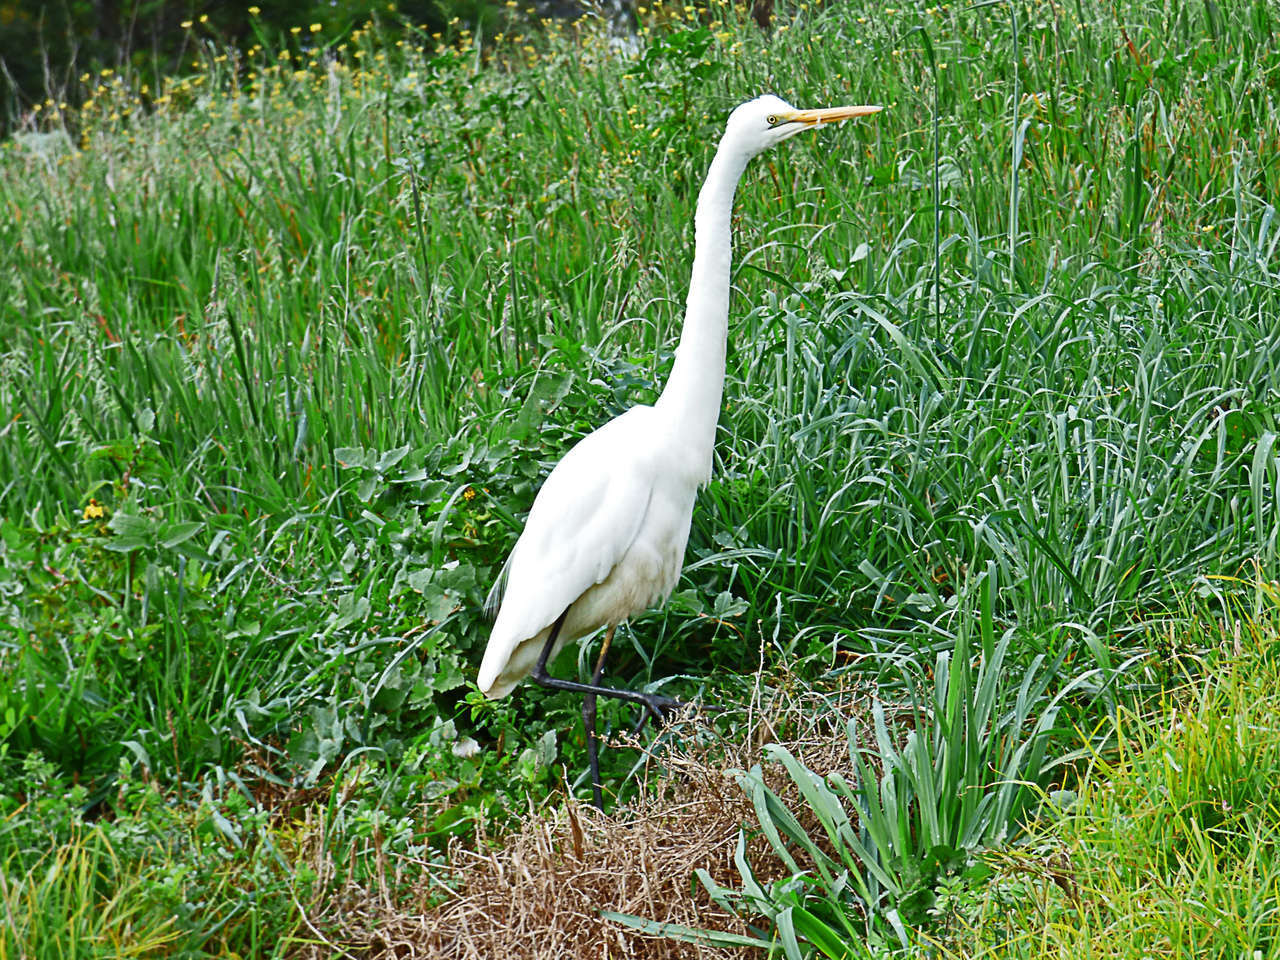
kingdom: Animalia
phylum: Chordata
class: Aves
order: Pelecaniformes
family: Ardeidae
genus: Ardea
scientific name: Ardea modesta
